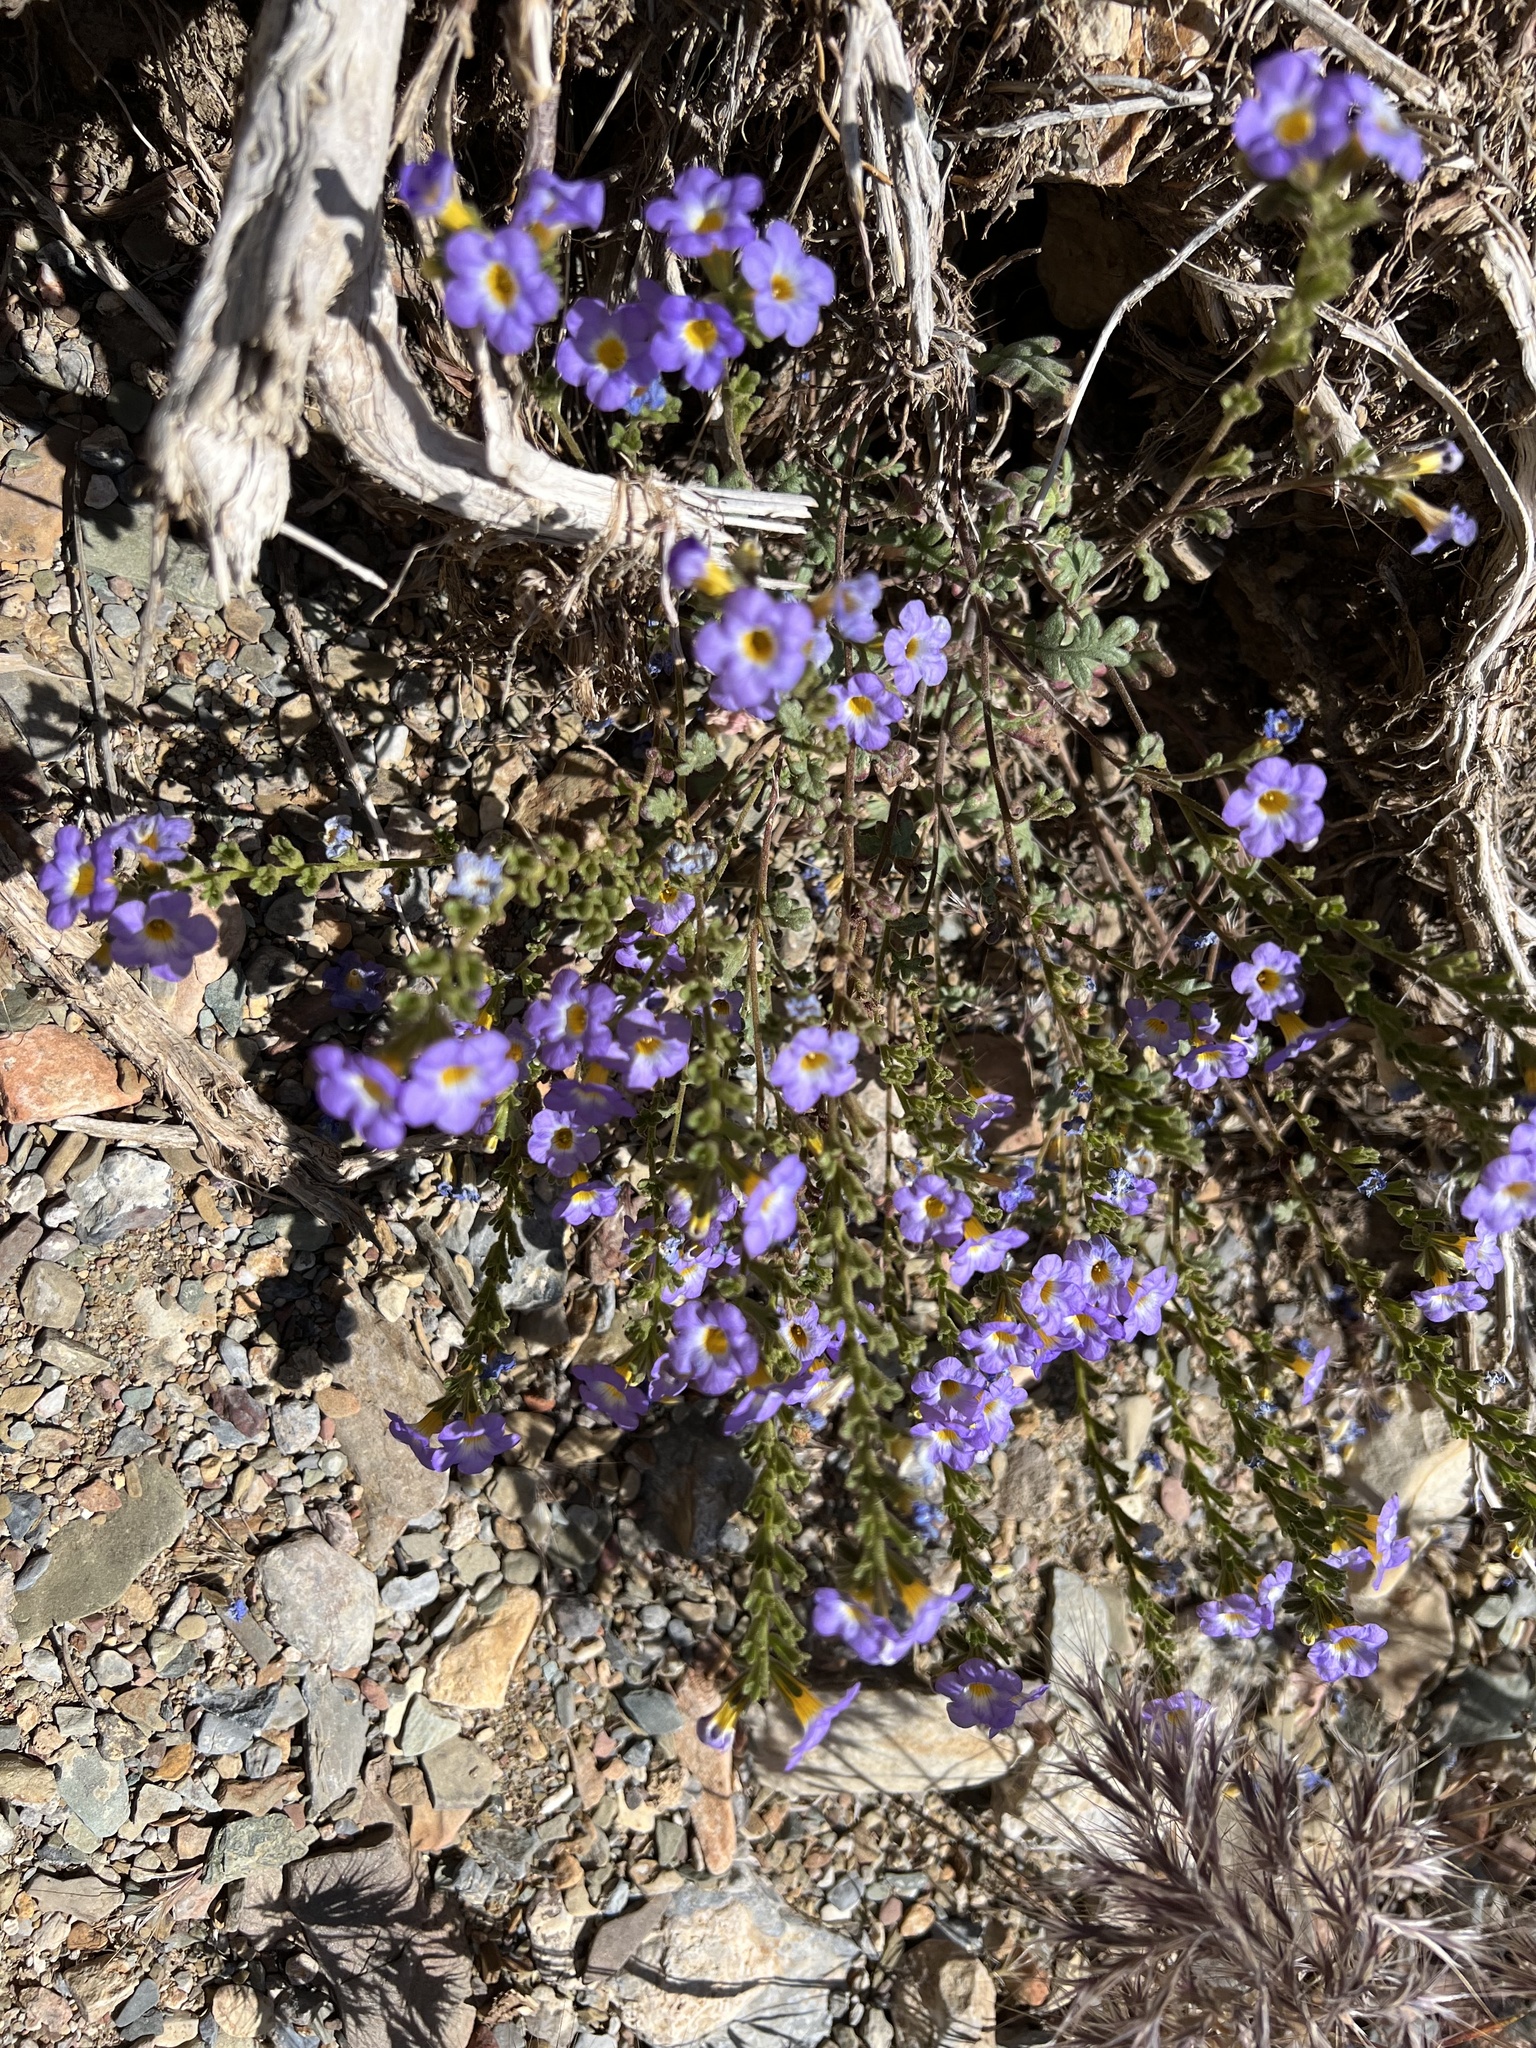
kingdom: Plantae
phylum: Tracheophyta
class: Magnoliopsida
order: Boraginales
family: Hydrophyllaceae
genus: Phacelia
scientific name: Phacelia fremontii
